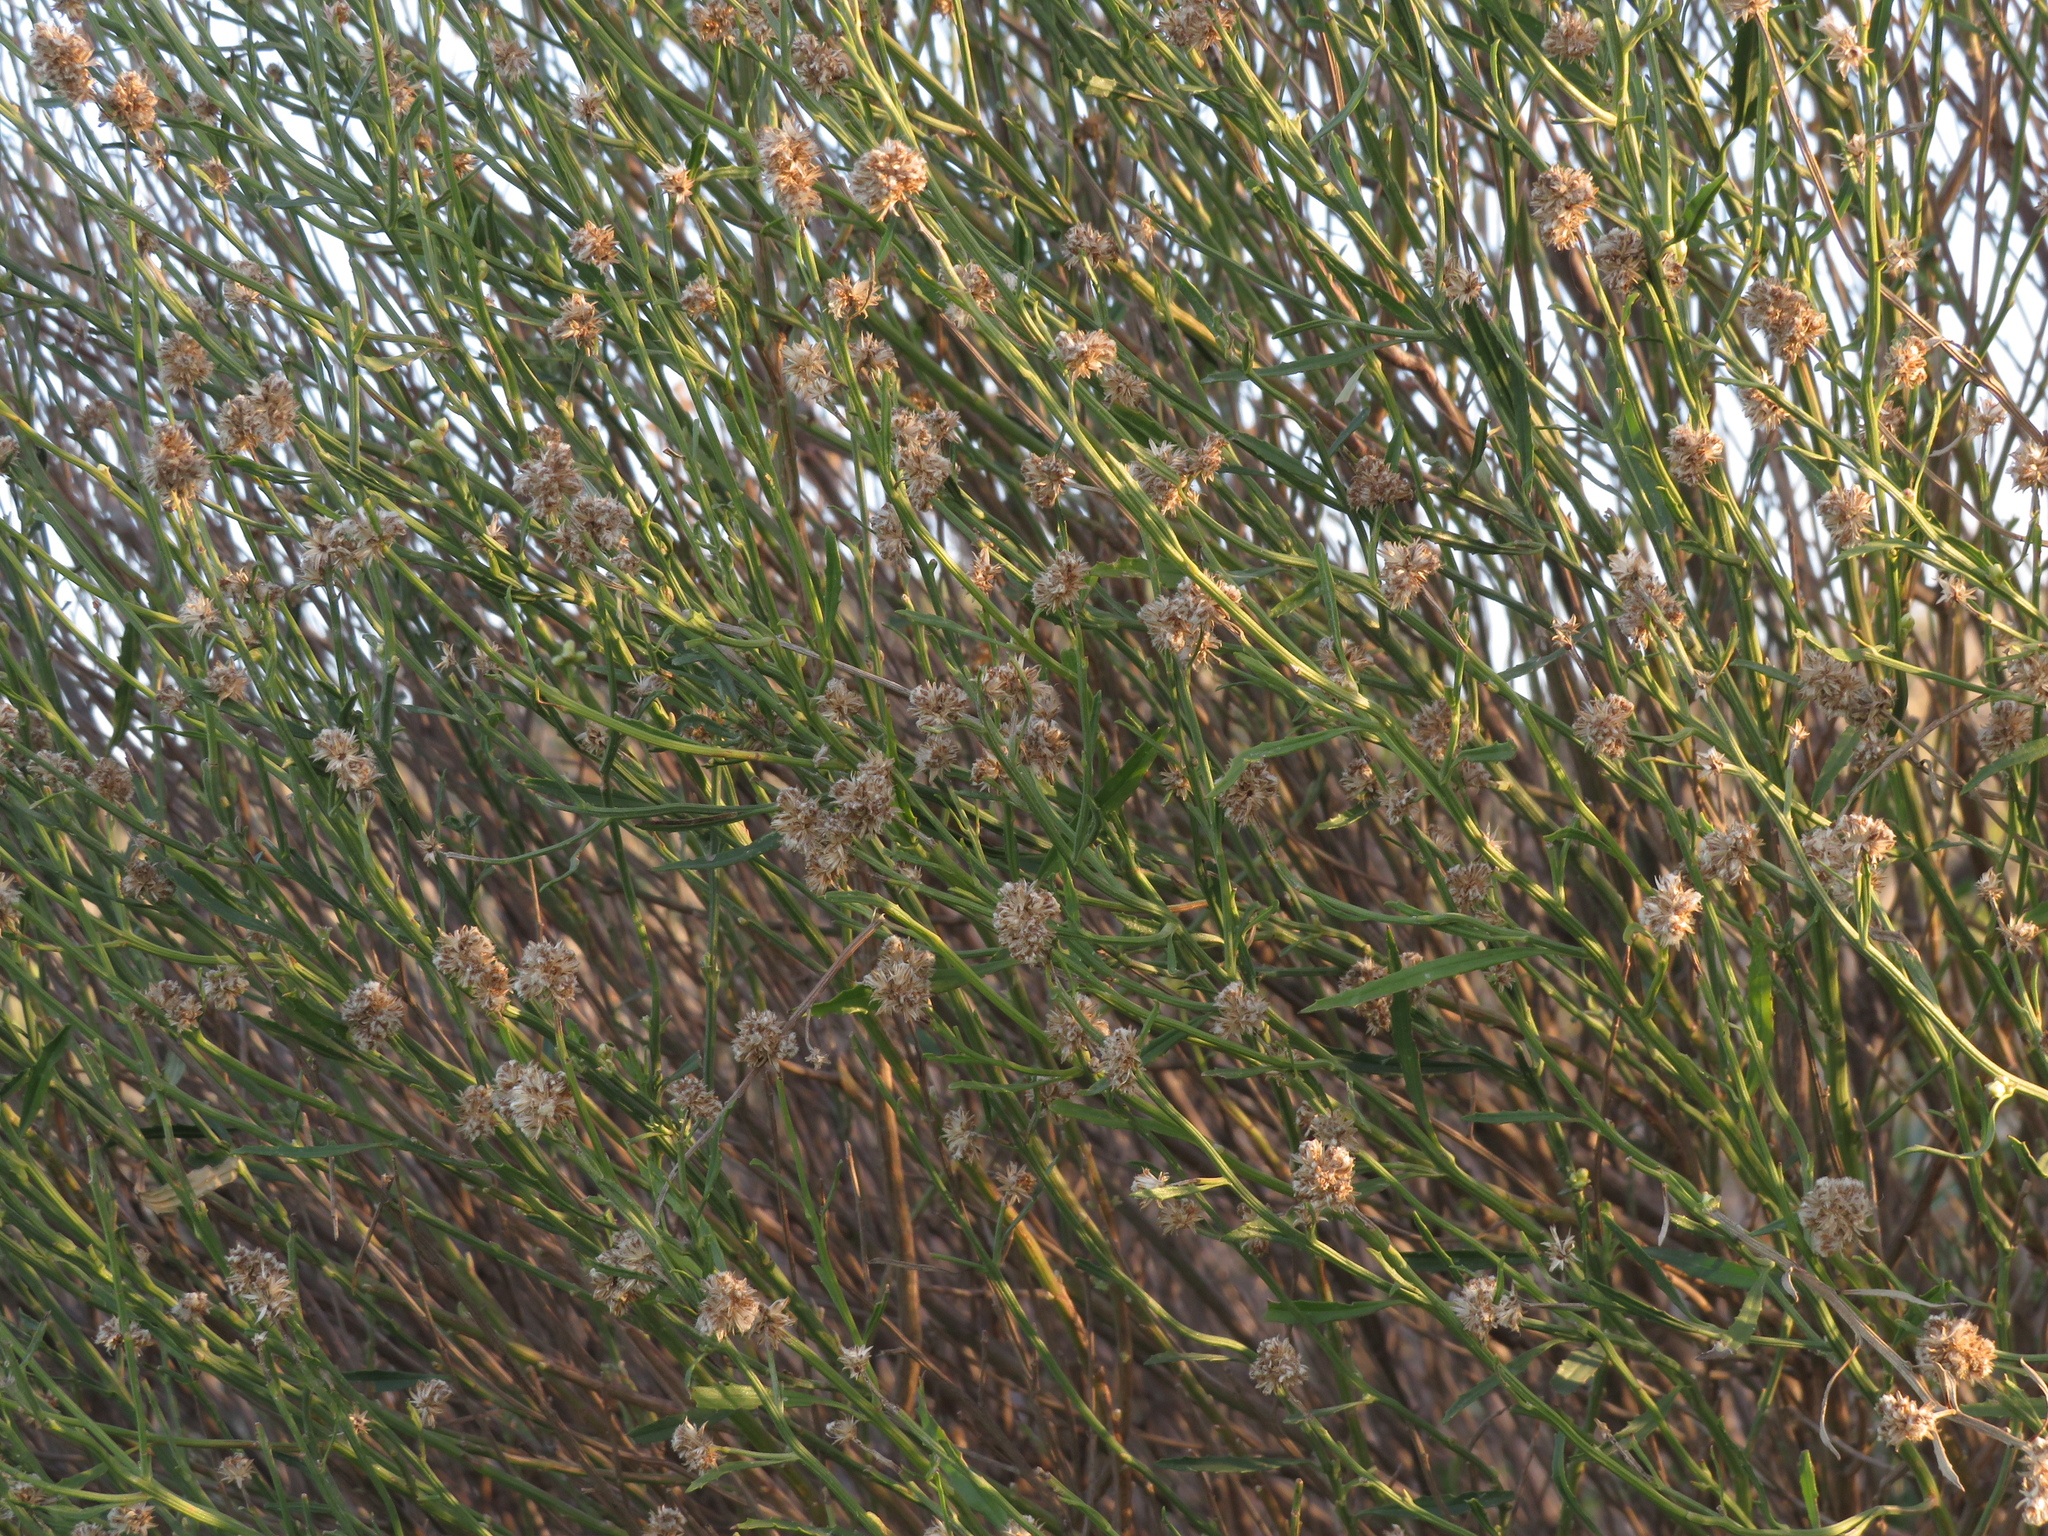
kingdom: Plantae
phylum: Tracheophyta
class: Magnoliopsida
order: Asterales
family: Asteraceae
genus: Baccharis
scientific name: Baccharis spicata
